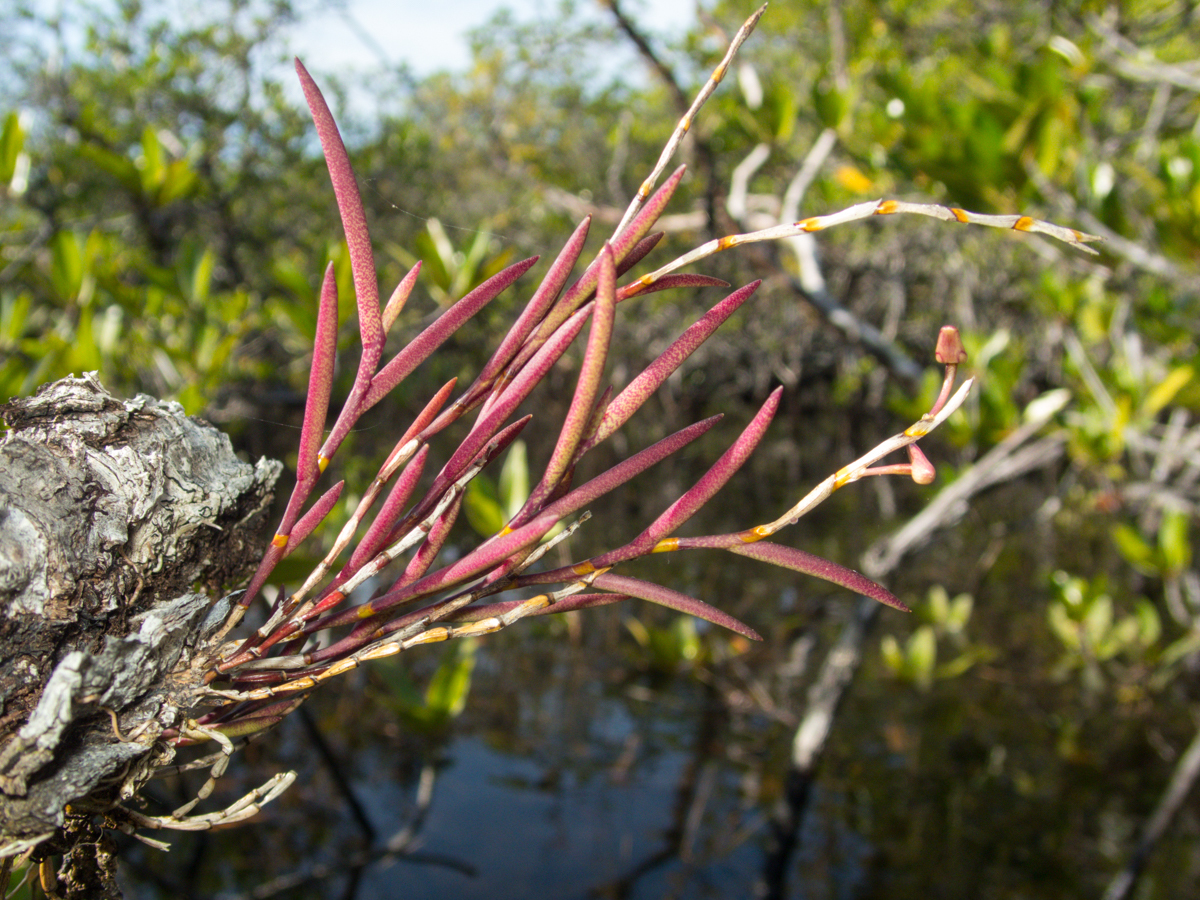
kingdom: Plantae
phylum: Tracheophyta
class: Liliopsida
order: Asparagales
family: Orchidaceae
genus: Dendrobium
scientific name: Dendrobium acerosum
